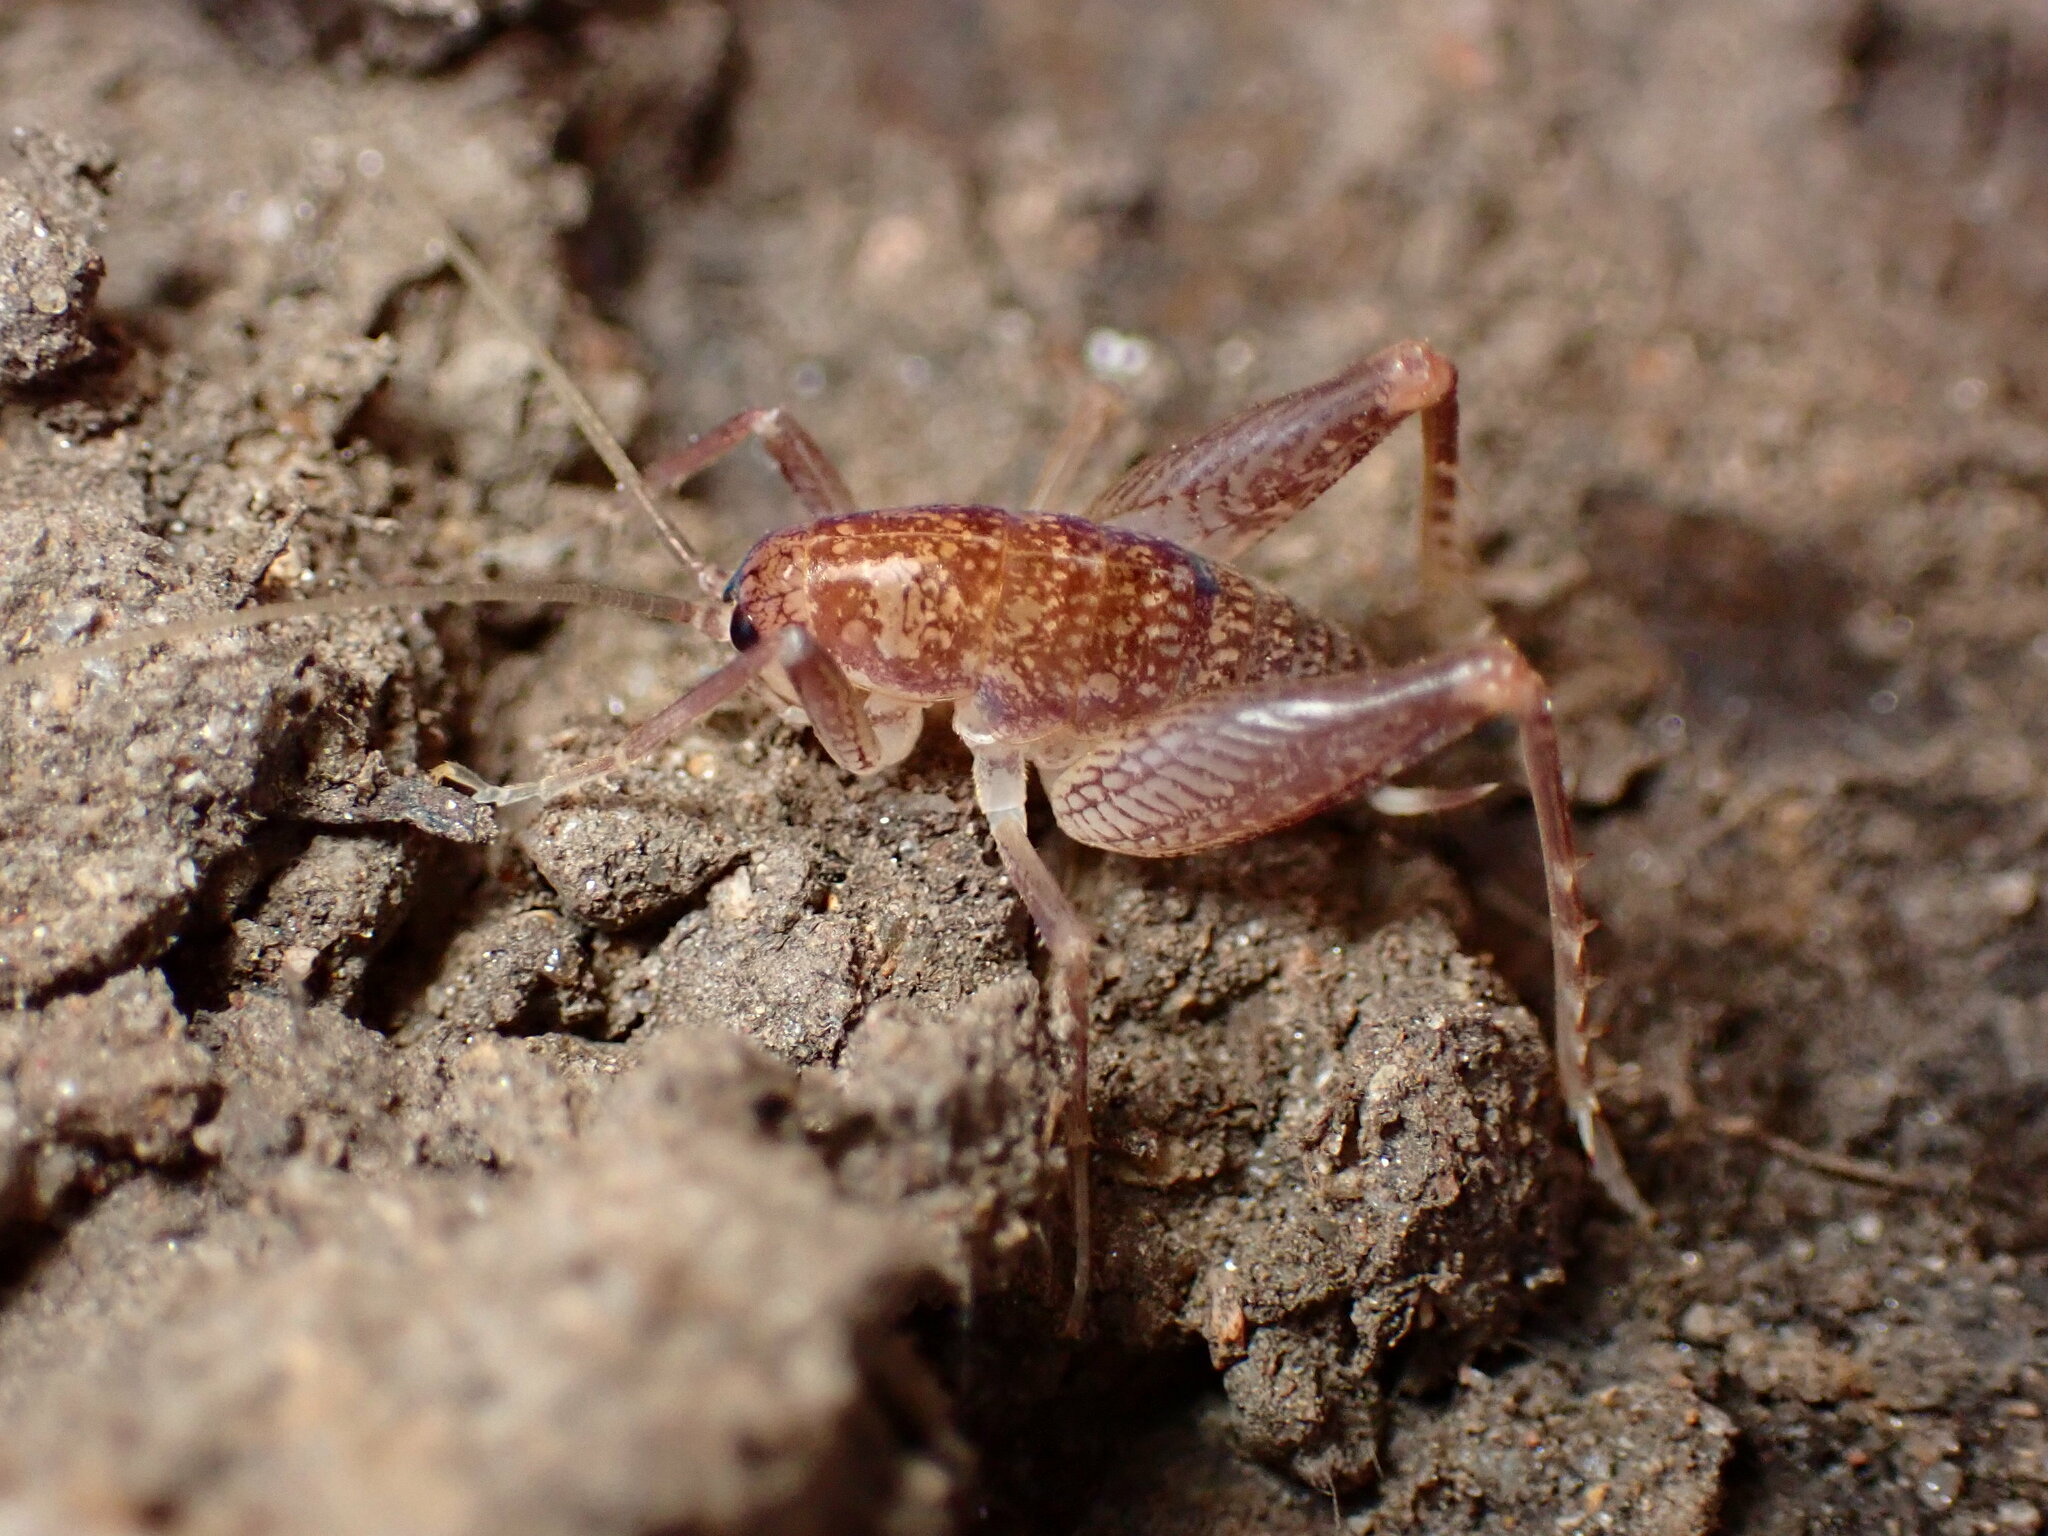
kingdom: Animalia
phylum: Arthropoda
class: Insecta
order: Orthoptera
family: Rhaphidophoridae
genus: Pristoceuthophilus
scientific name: Pristoceuthophilus
